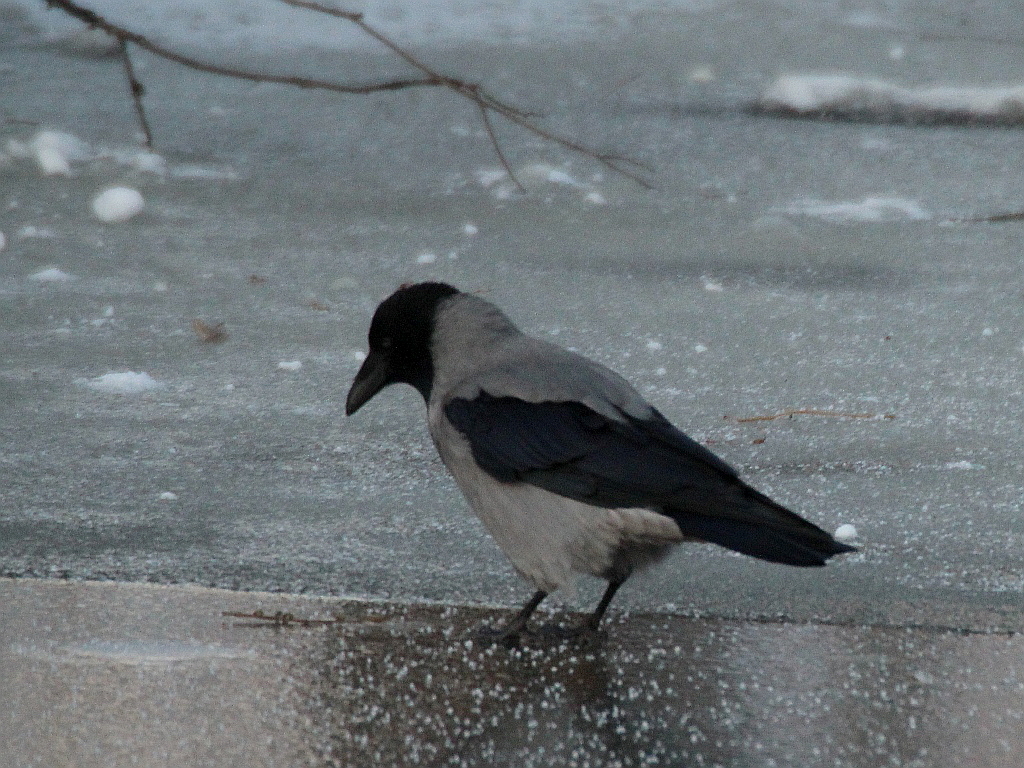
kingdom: Animalia
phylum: Chordata
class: Aves
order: Passeriformes
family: Corvidae
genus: Corvus
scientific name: Corvus cornix
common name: Hooded crow
